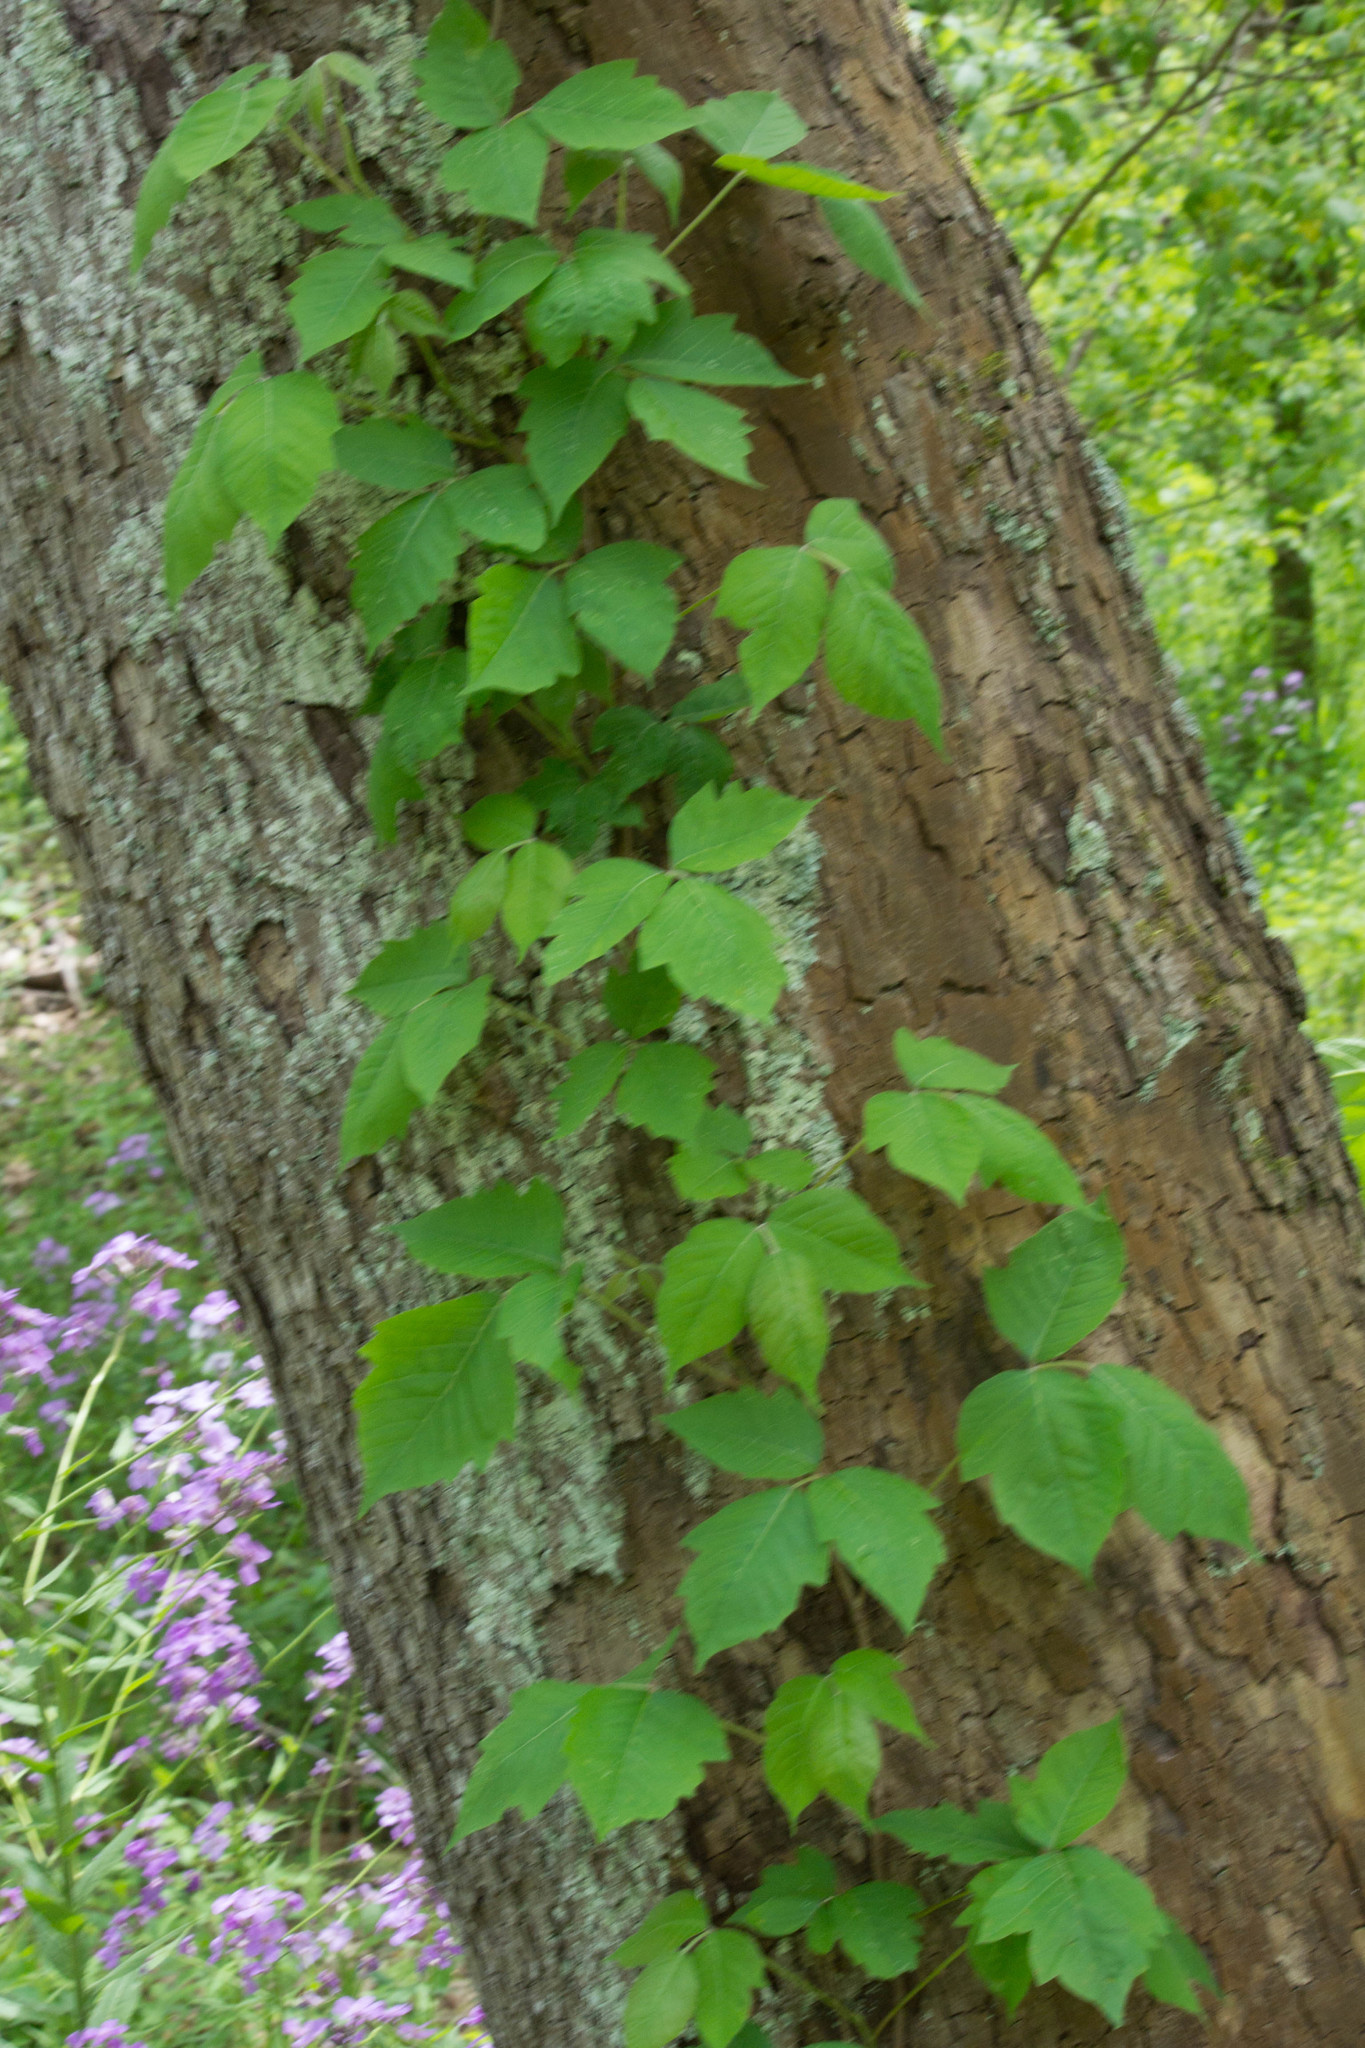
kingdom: Plantae
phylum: Tracheophyta
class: Magnoliopsida
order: Sapindales
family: Anacardiaceae
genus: Toxicodendron
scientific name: Toxicodendron radicans
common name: Poison ivy
